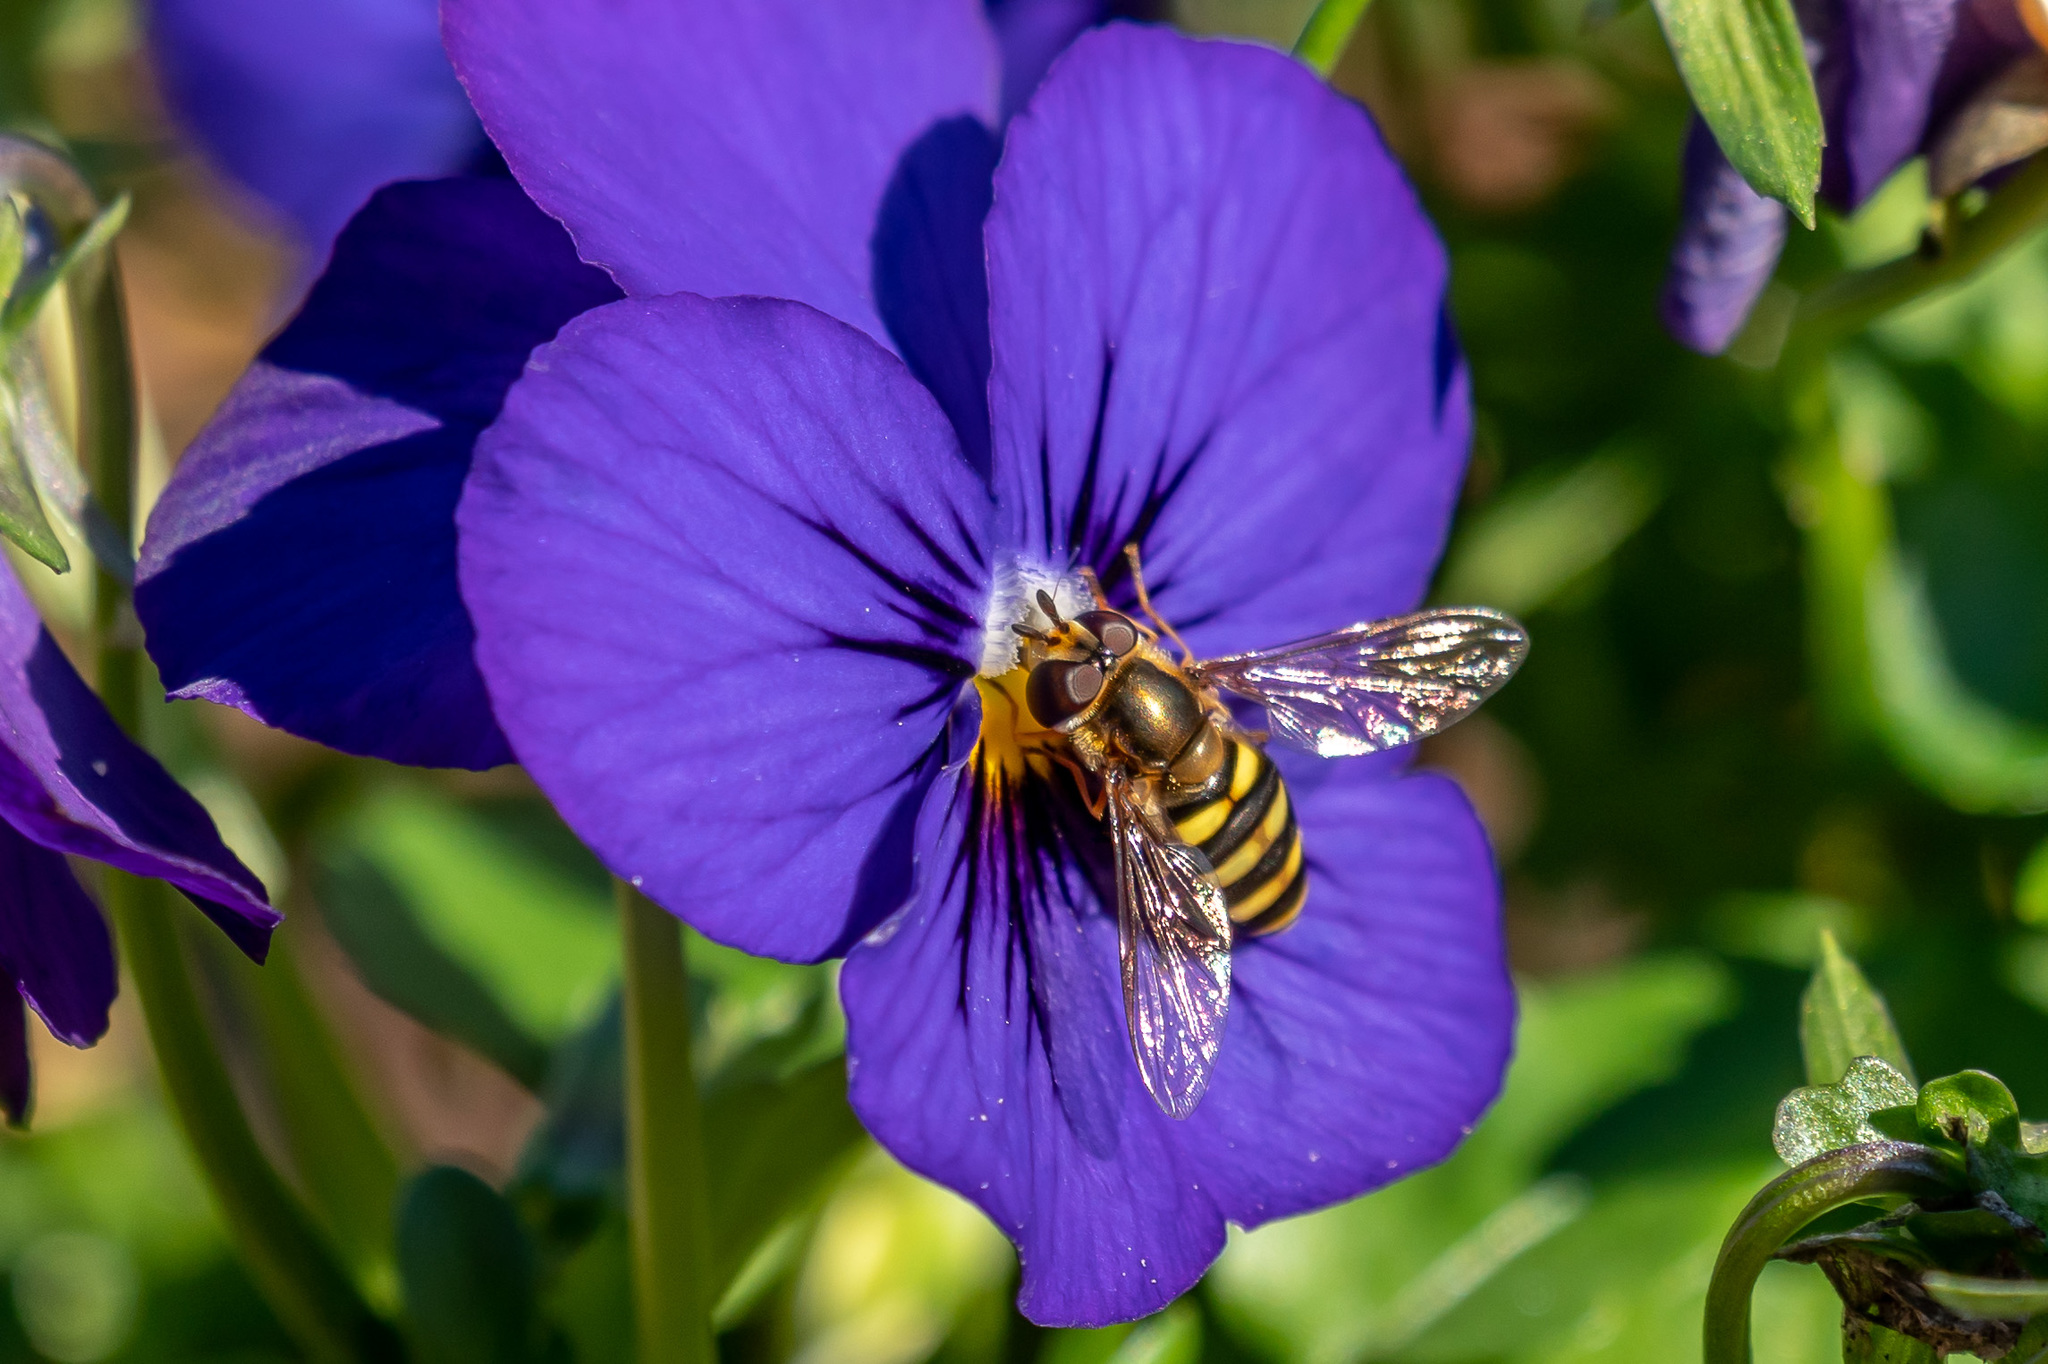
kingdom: Animalia
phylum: Arthropoda
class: Insecta
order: Diptera
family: Syrphidae
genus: Eupeodes
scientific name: Eupeodes
